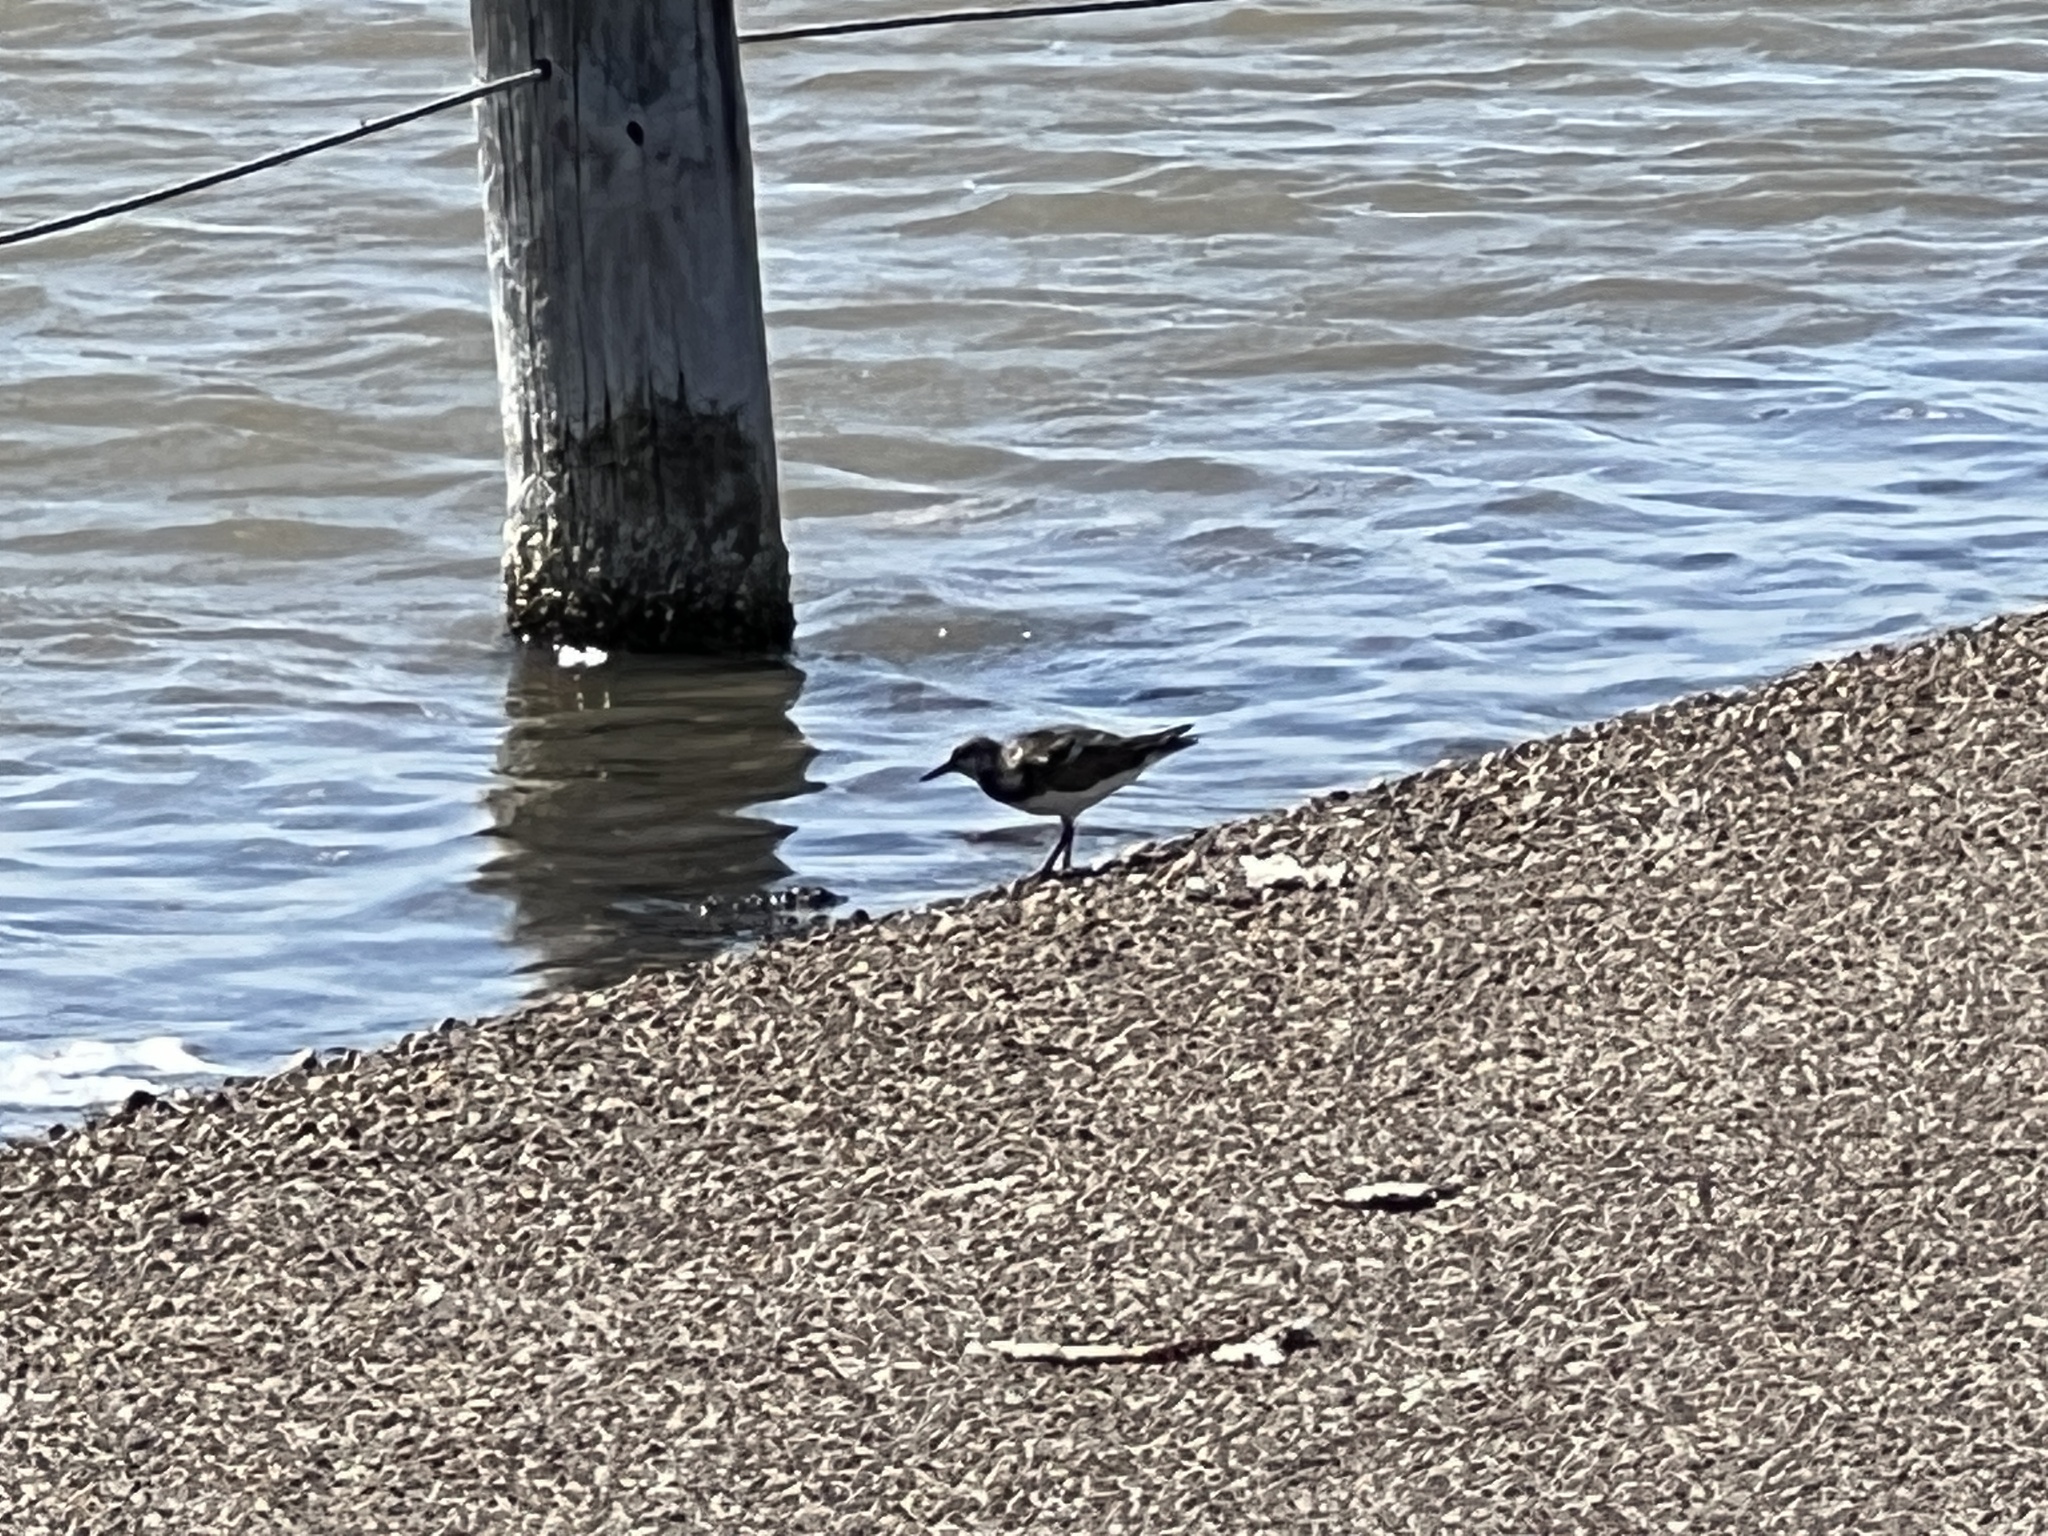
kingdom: Animalia
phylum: Chordata
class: Aves
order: Charadriiformes
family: Scolopacidae
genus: Arenaria
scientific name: Arenaria interpres
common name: Ruddy turnstone
